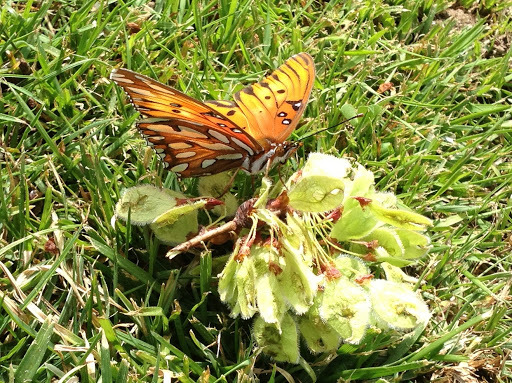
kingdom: Animalia
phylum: Arthropoda
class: Insecta
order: Lepidoptera
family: Nymphalidae
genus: Dione
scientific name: Dione vanillae
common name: Gulf fritillary
